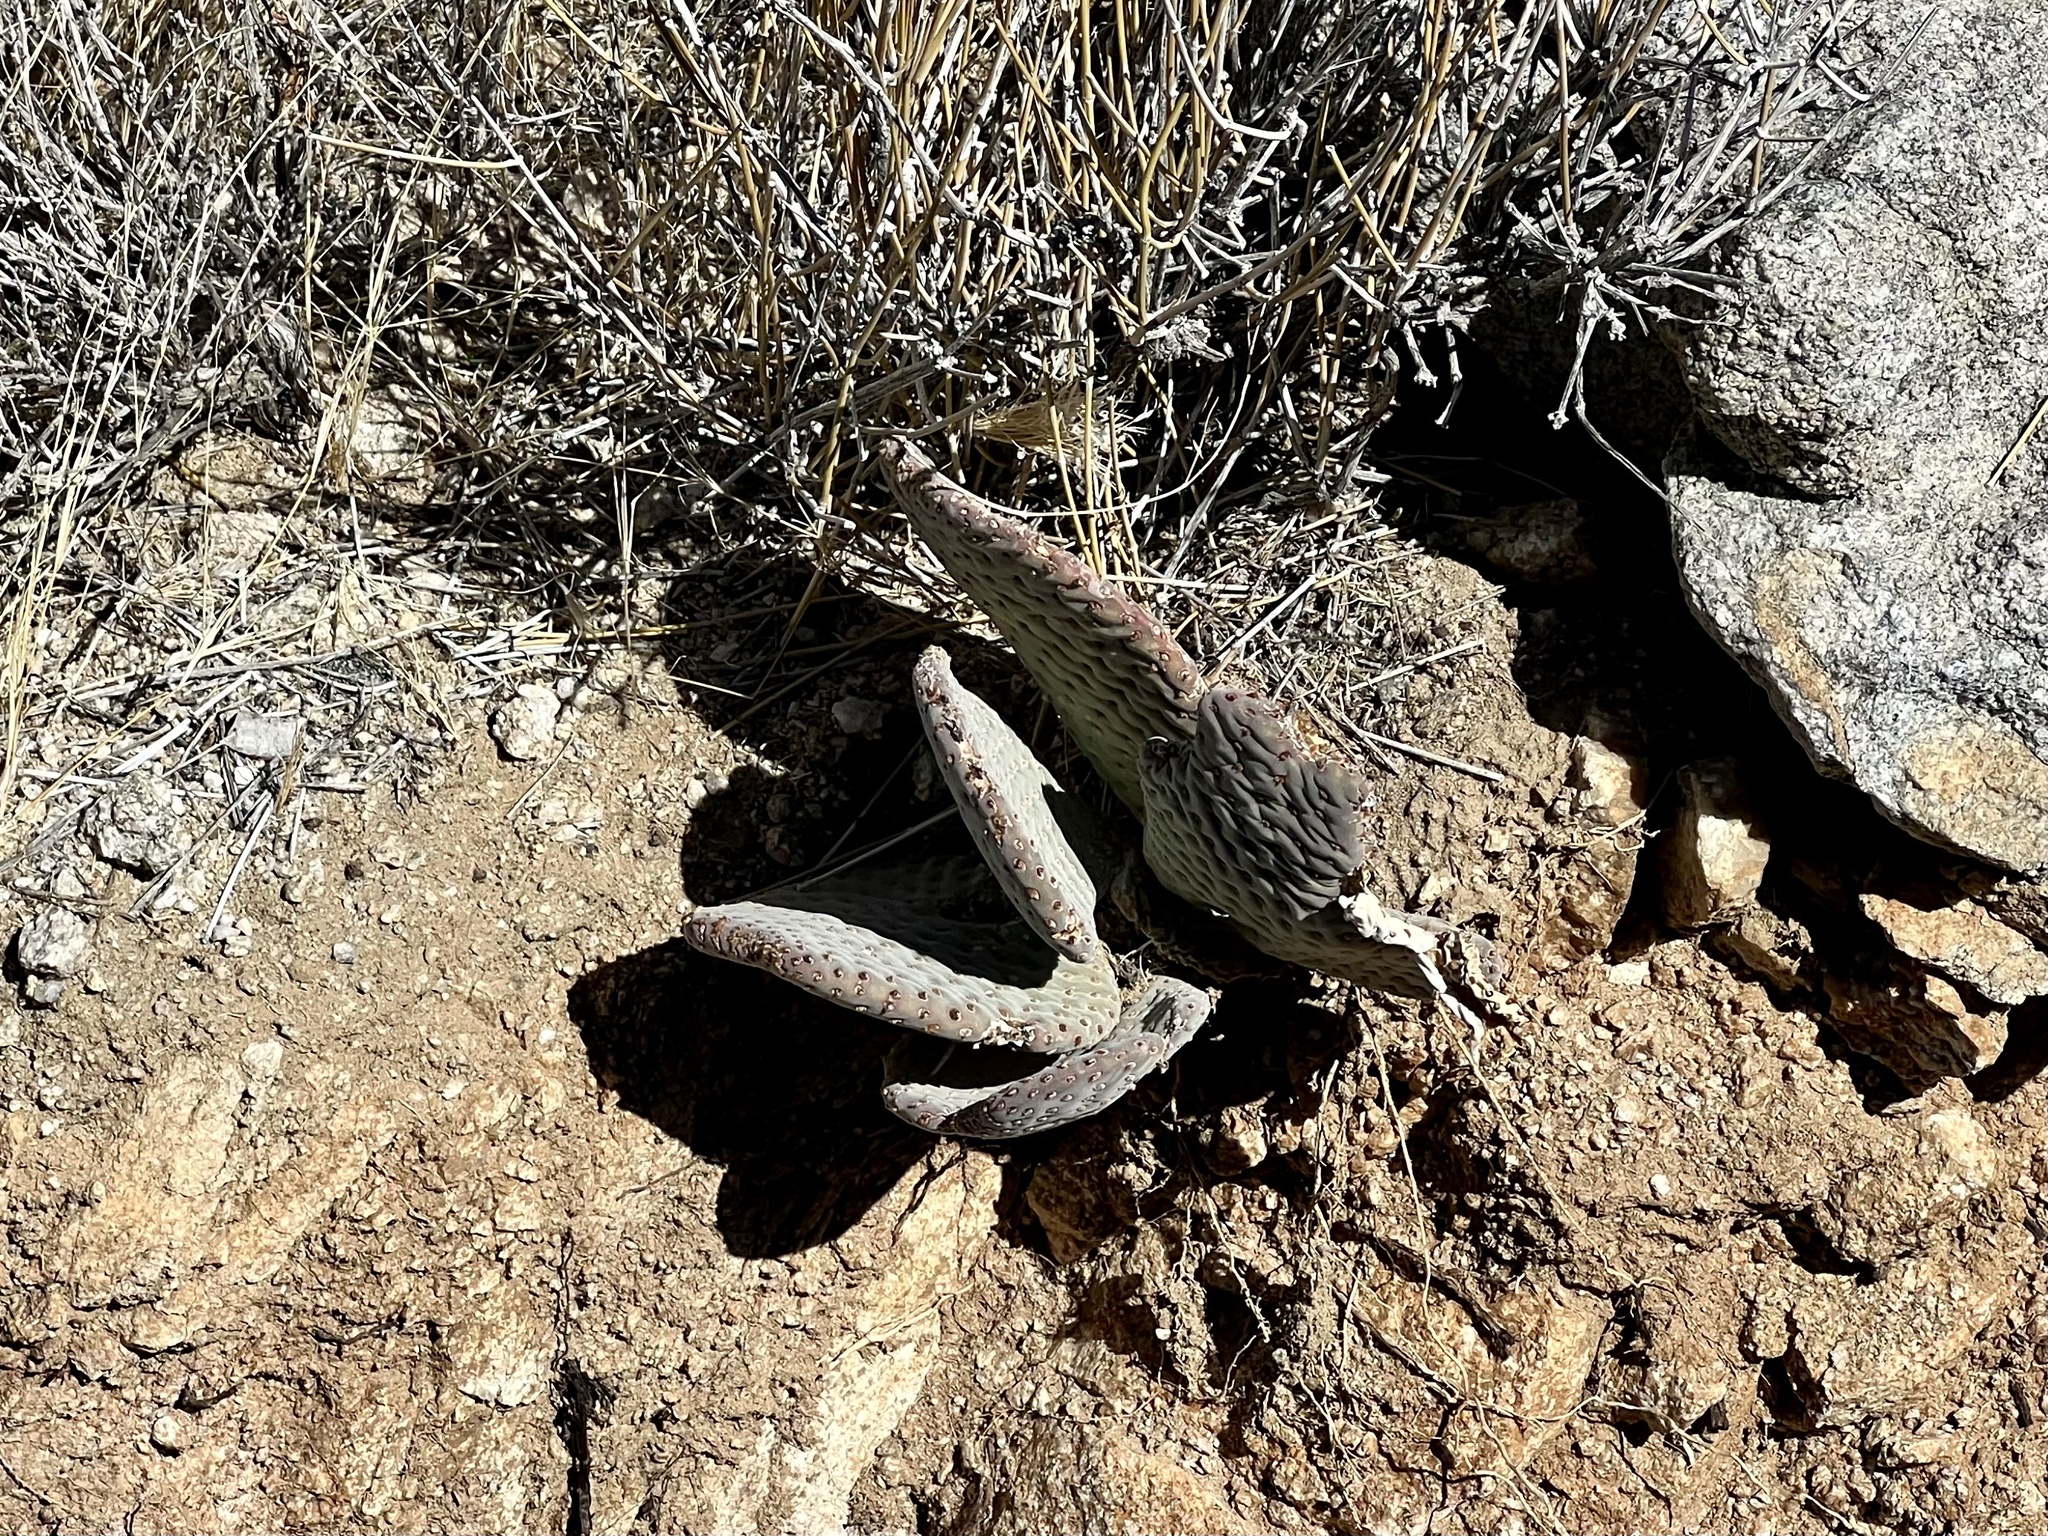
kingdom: Plantae
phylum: Tracheophyta
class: Magnoliopsida
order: Caryophyllales
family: Cactaceae
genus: Opuntia
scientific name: Opuntia basilaris
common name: Beavertail prickly-pear
